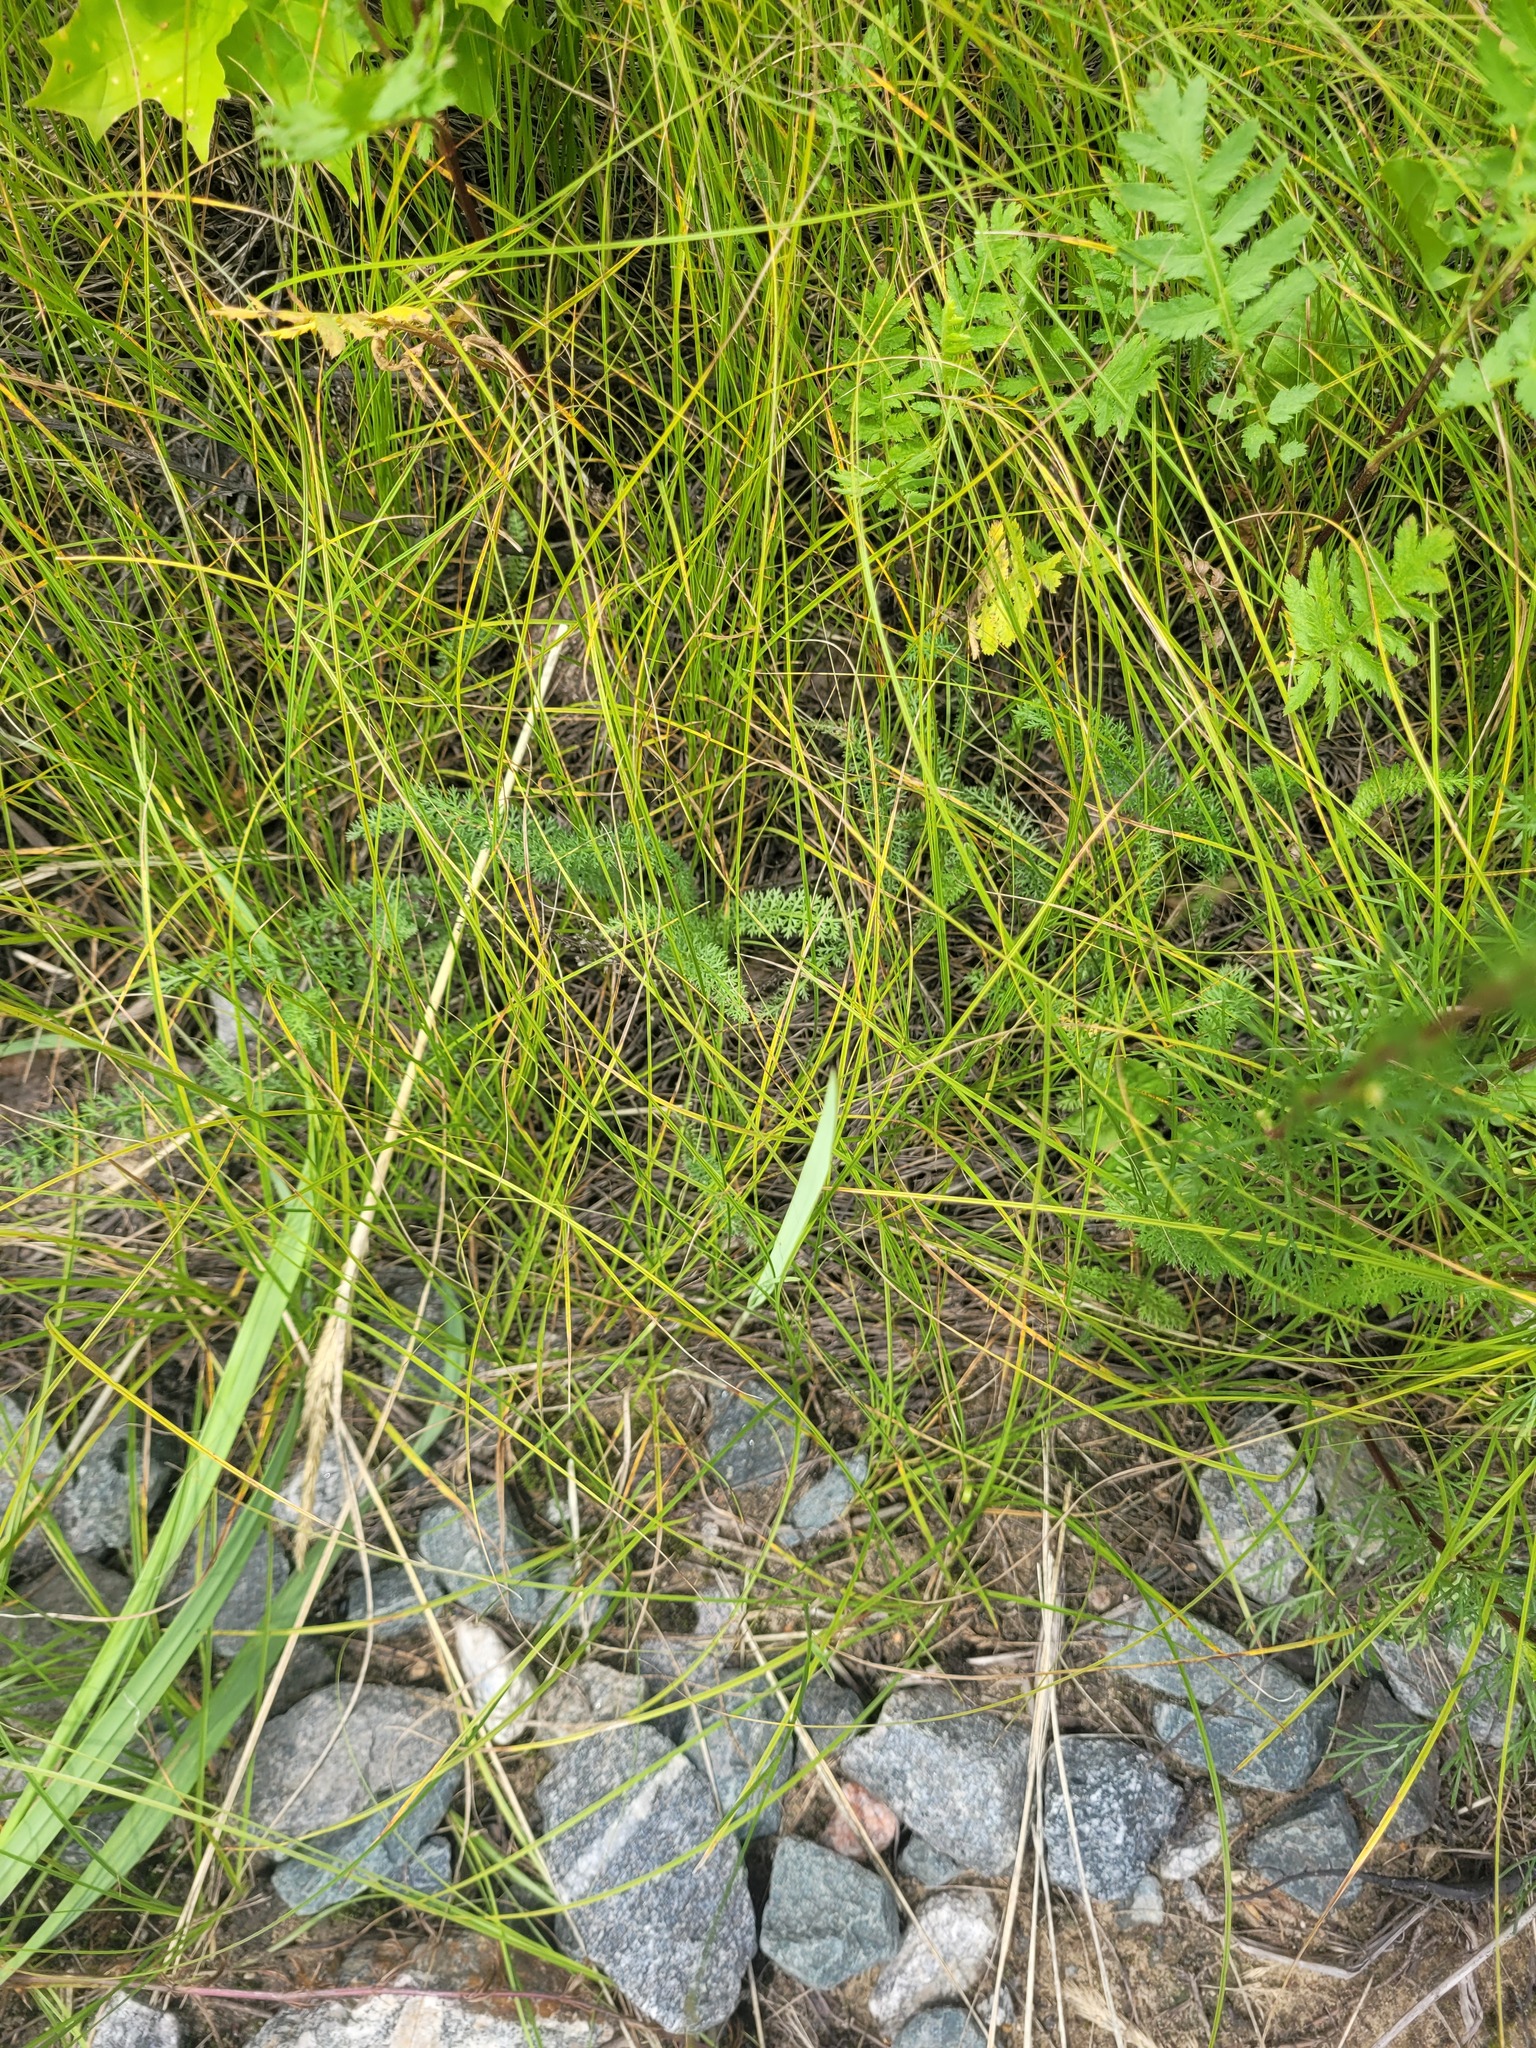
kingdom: Plantae
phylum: Tracheophyta
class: Liliopsida
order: Poales
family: Cyperaceae
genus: Carex
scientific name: Carex praecox
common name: Early sedge
